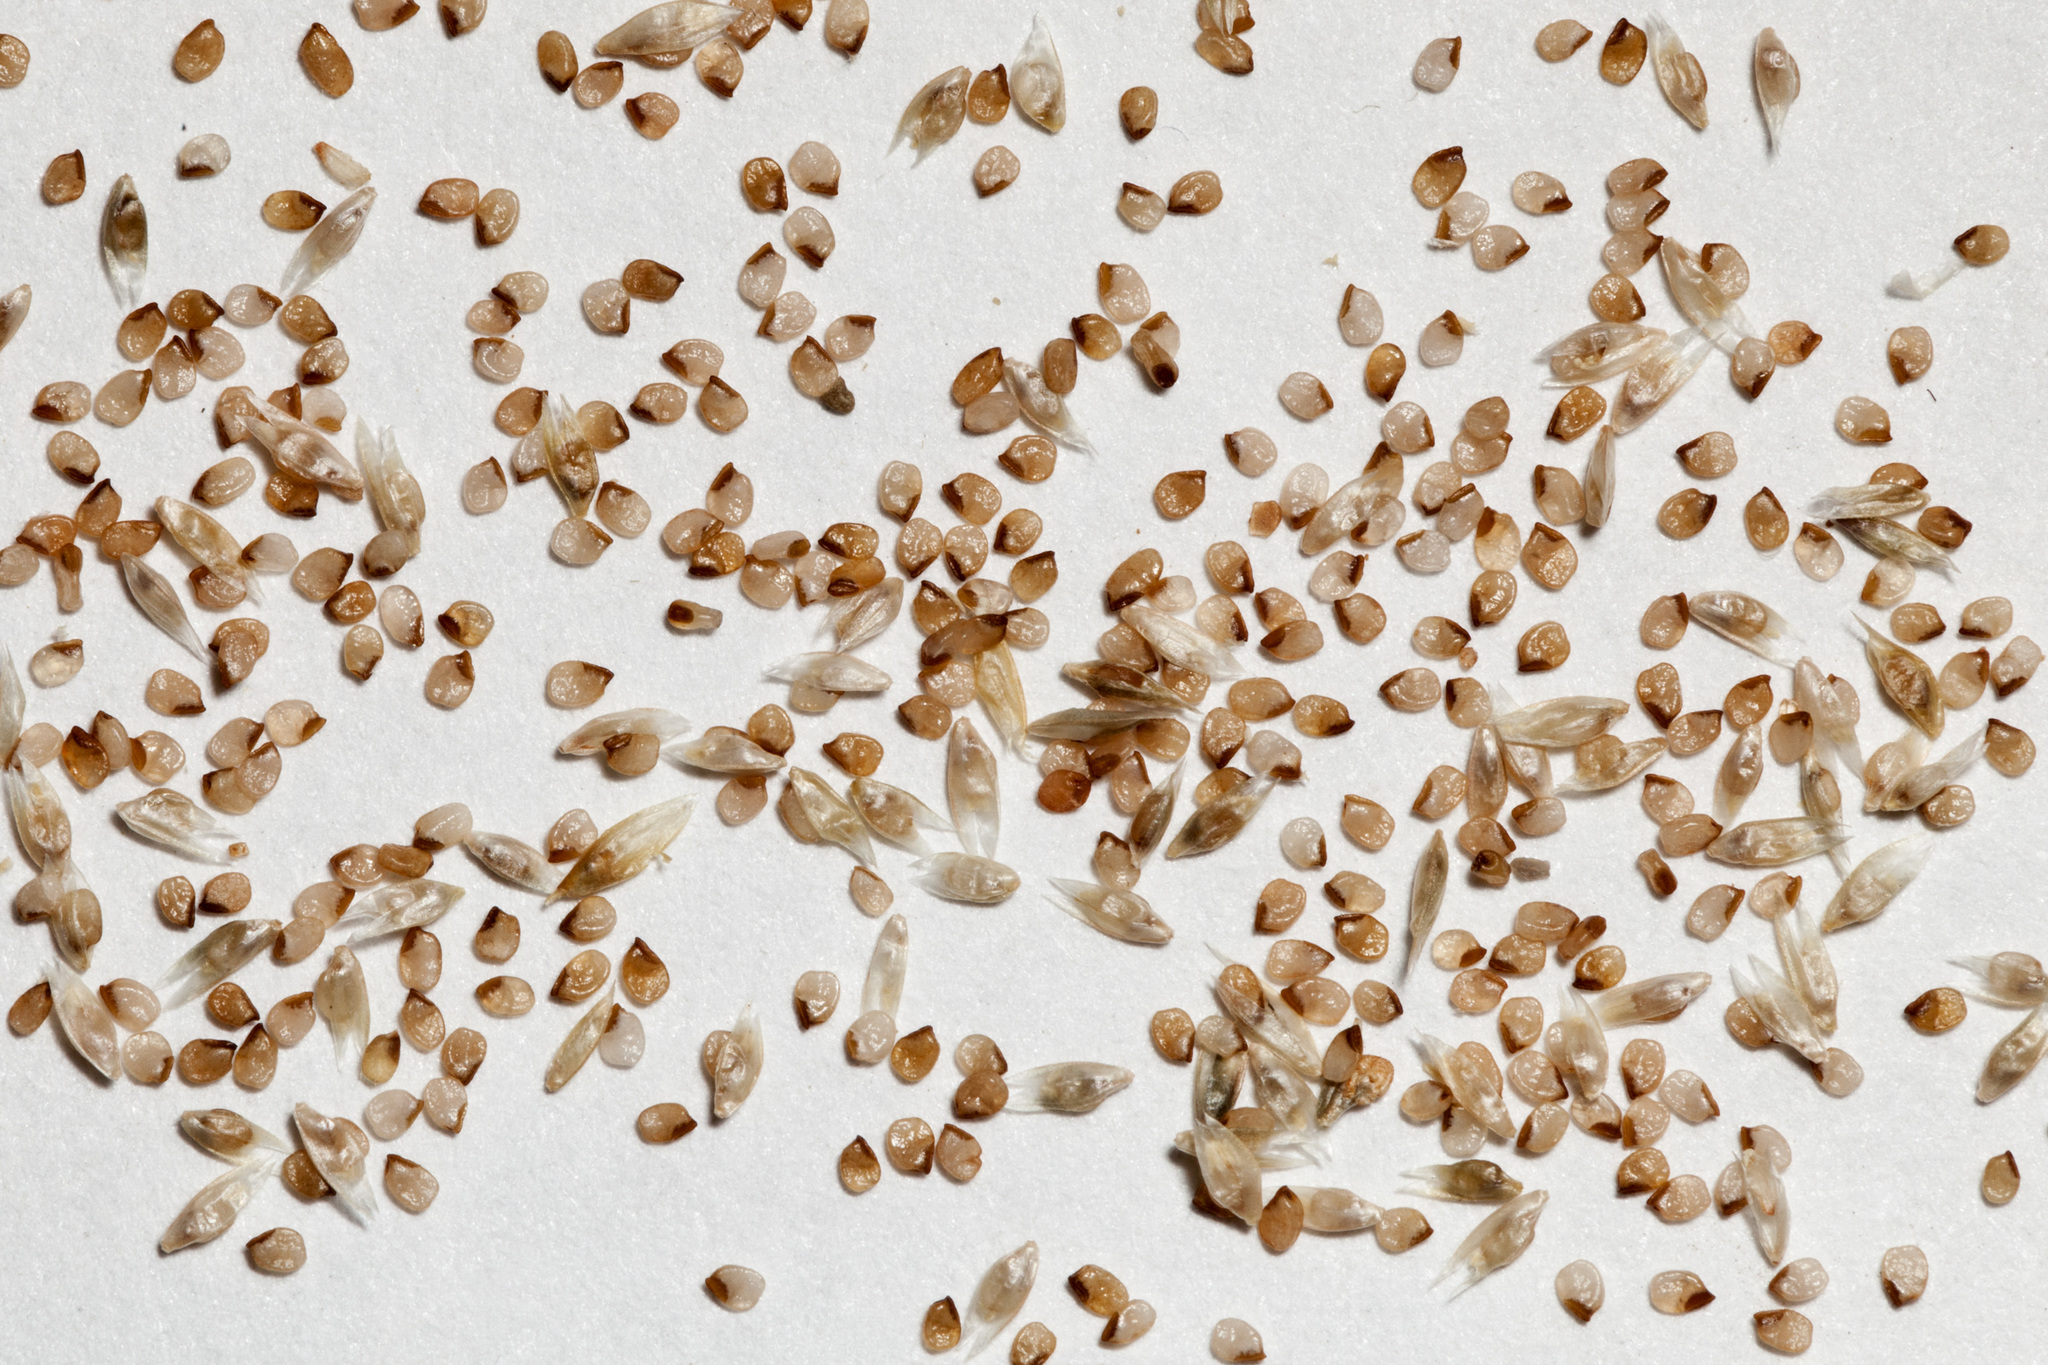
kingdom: Plantae
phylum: Tracheophyta
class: Liliopsida
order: Poales
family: Poaceae
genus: Sporobolus
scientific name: Sporobolus flexuosus
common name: Mesa dropseed
